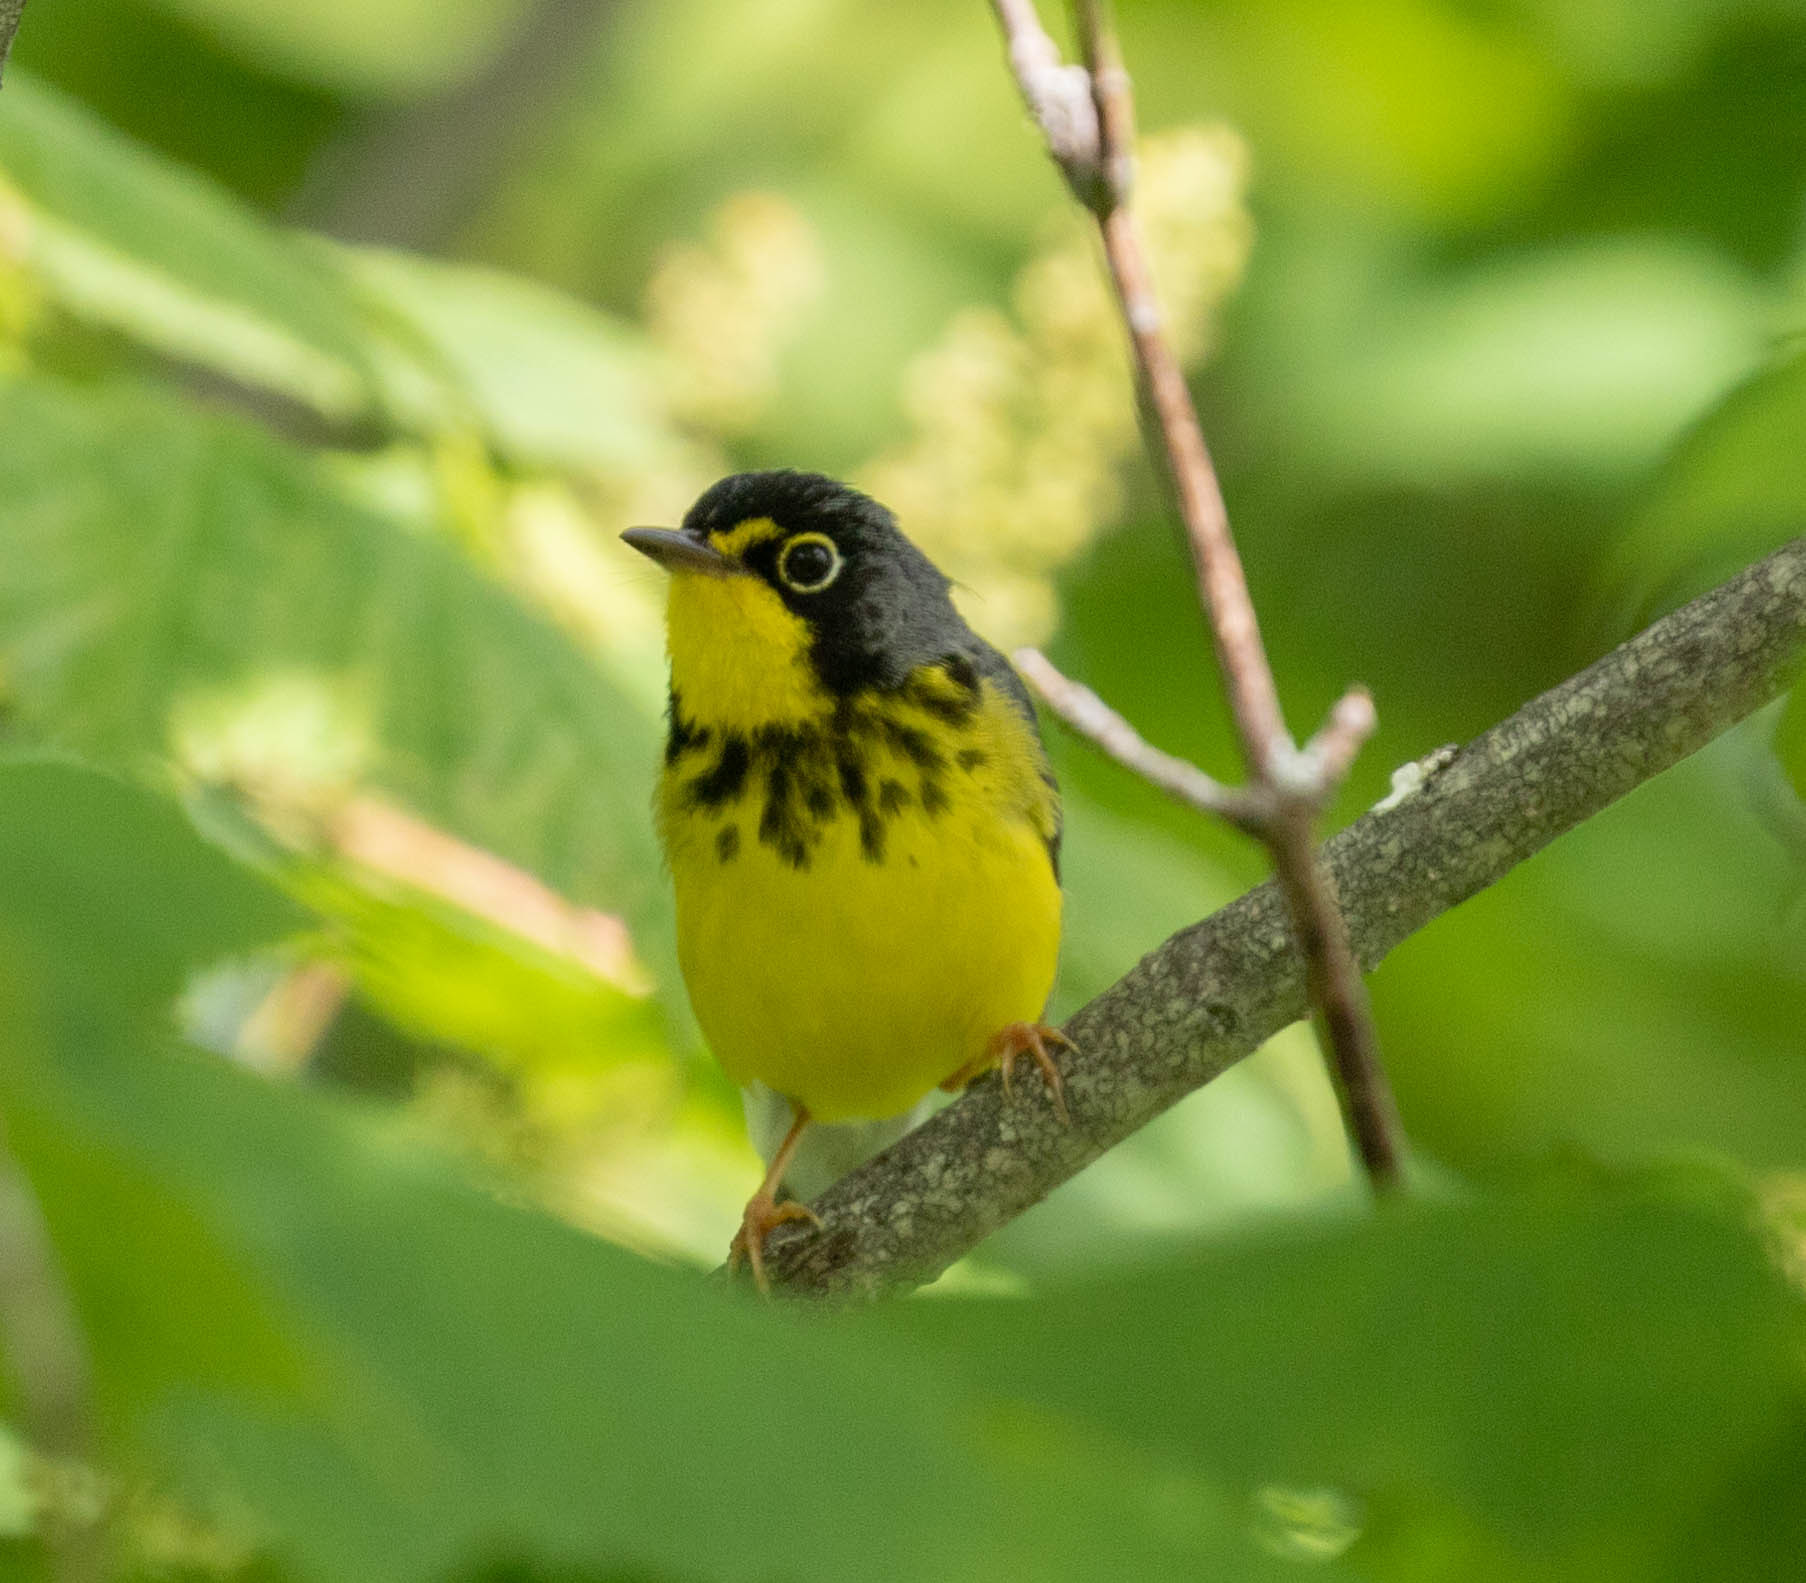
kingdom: Animalia
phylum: Chordata
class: Aves
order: Passeriformes
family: Parulidae
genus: Cardellina
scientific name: Cardellina canadensis
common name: Canada warbler
